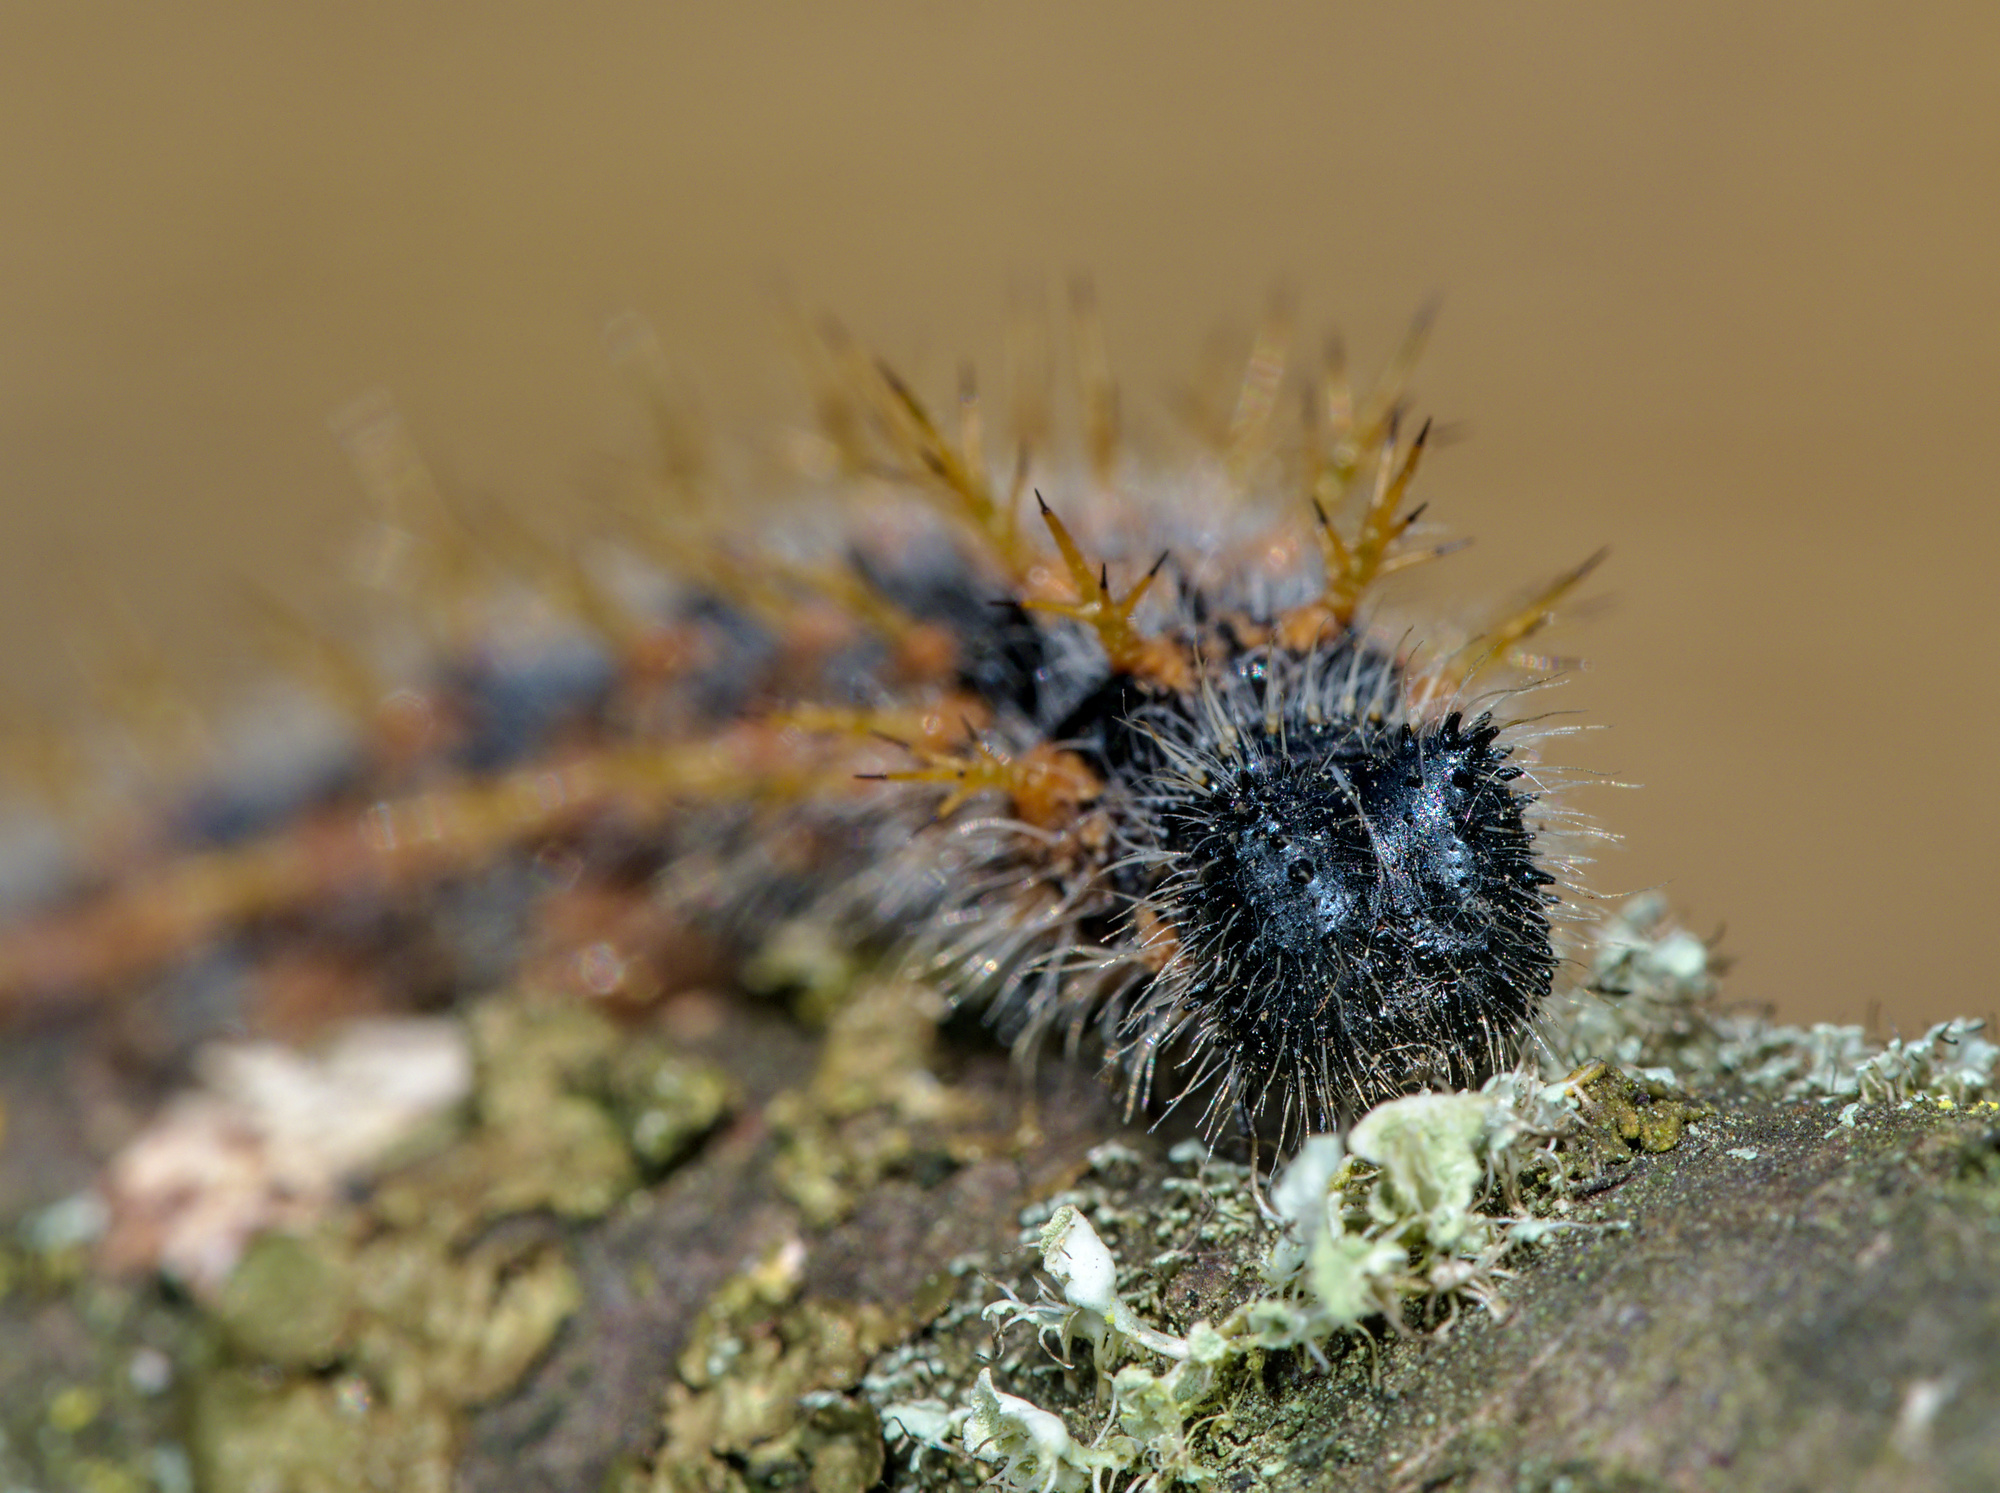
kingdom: Animalia
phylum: Arthropoda
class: Insecta
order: Lepidoptera
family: Nymphalidae
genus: Nymphalis
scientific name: Nymphalis polychloros
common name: Large tortoiseshell
